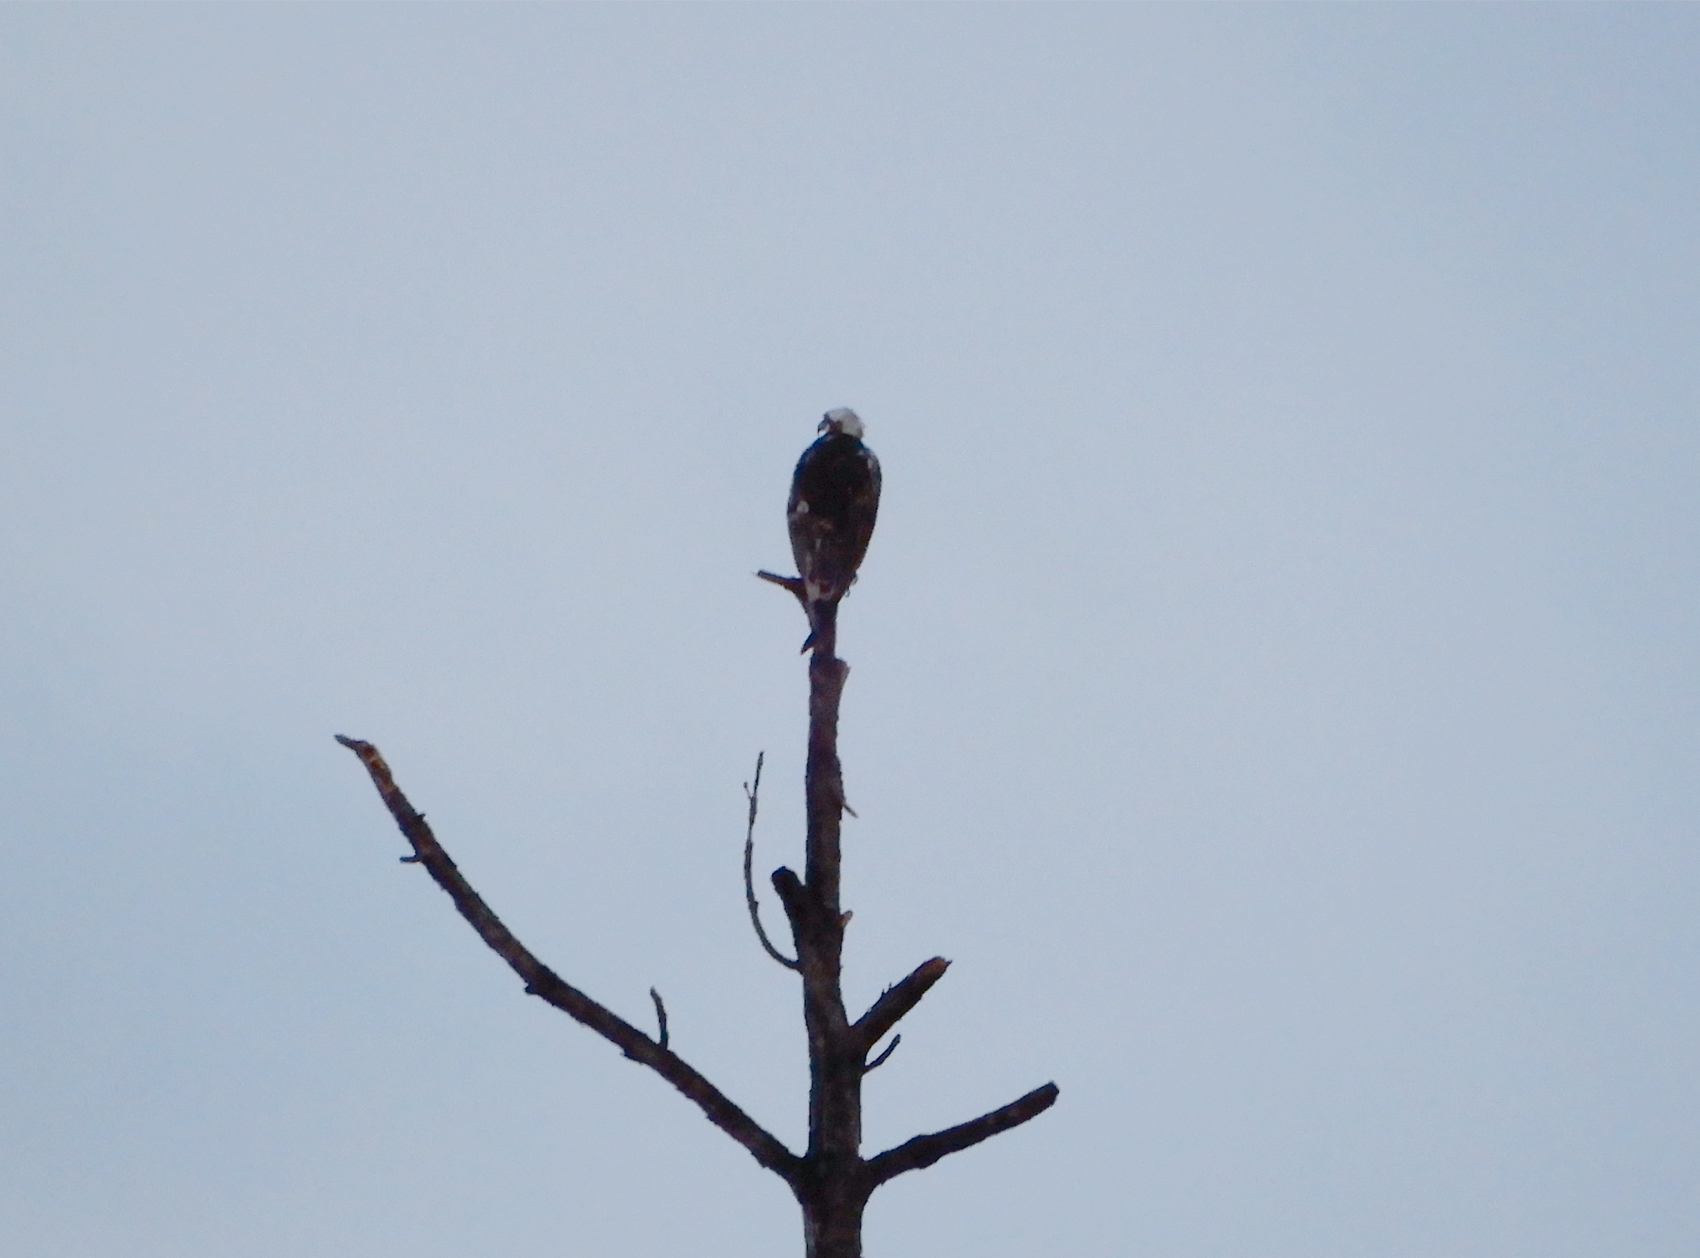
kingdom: Animalia
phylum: Chordata
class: Aves
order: Accipitriformes
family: Pandionidae
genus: Pandion
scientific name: Pandion haliaetus
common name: Osprey
